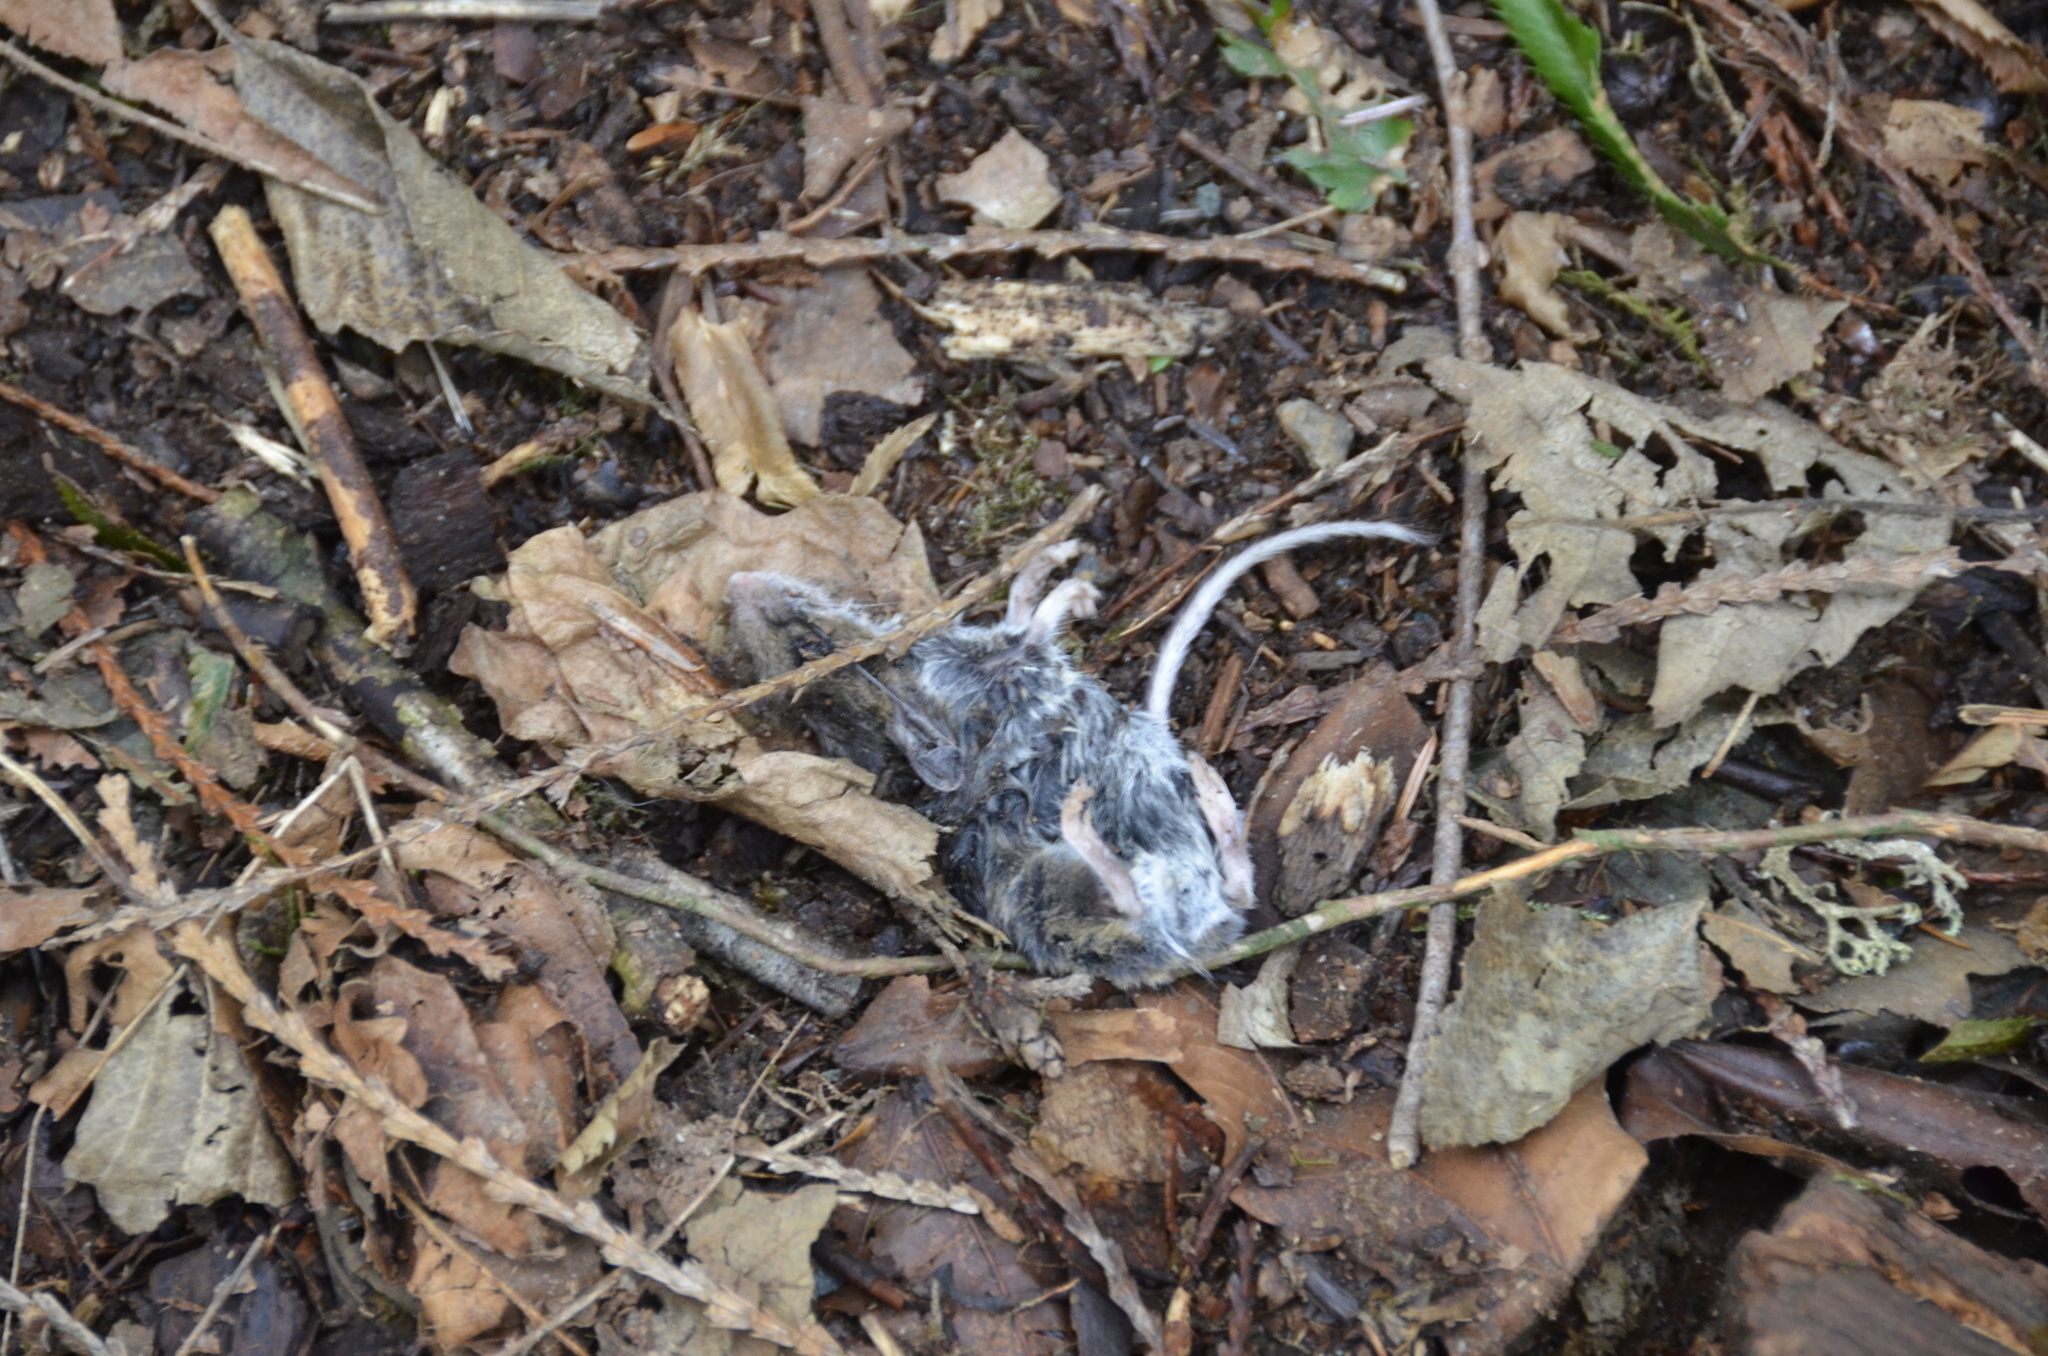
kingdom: Animalia
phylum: Chordata
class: Mammalia
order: Rodentia
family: Cricetidae
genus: Peromyscus
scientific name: Peromyscus maniculatus
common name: Deer mouse
